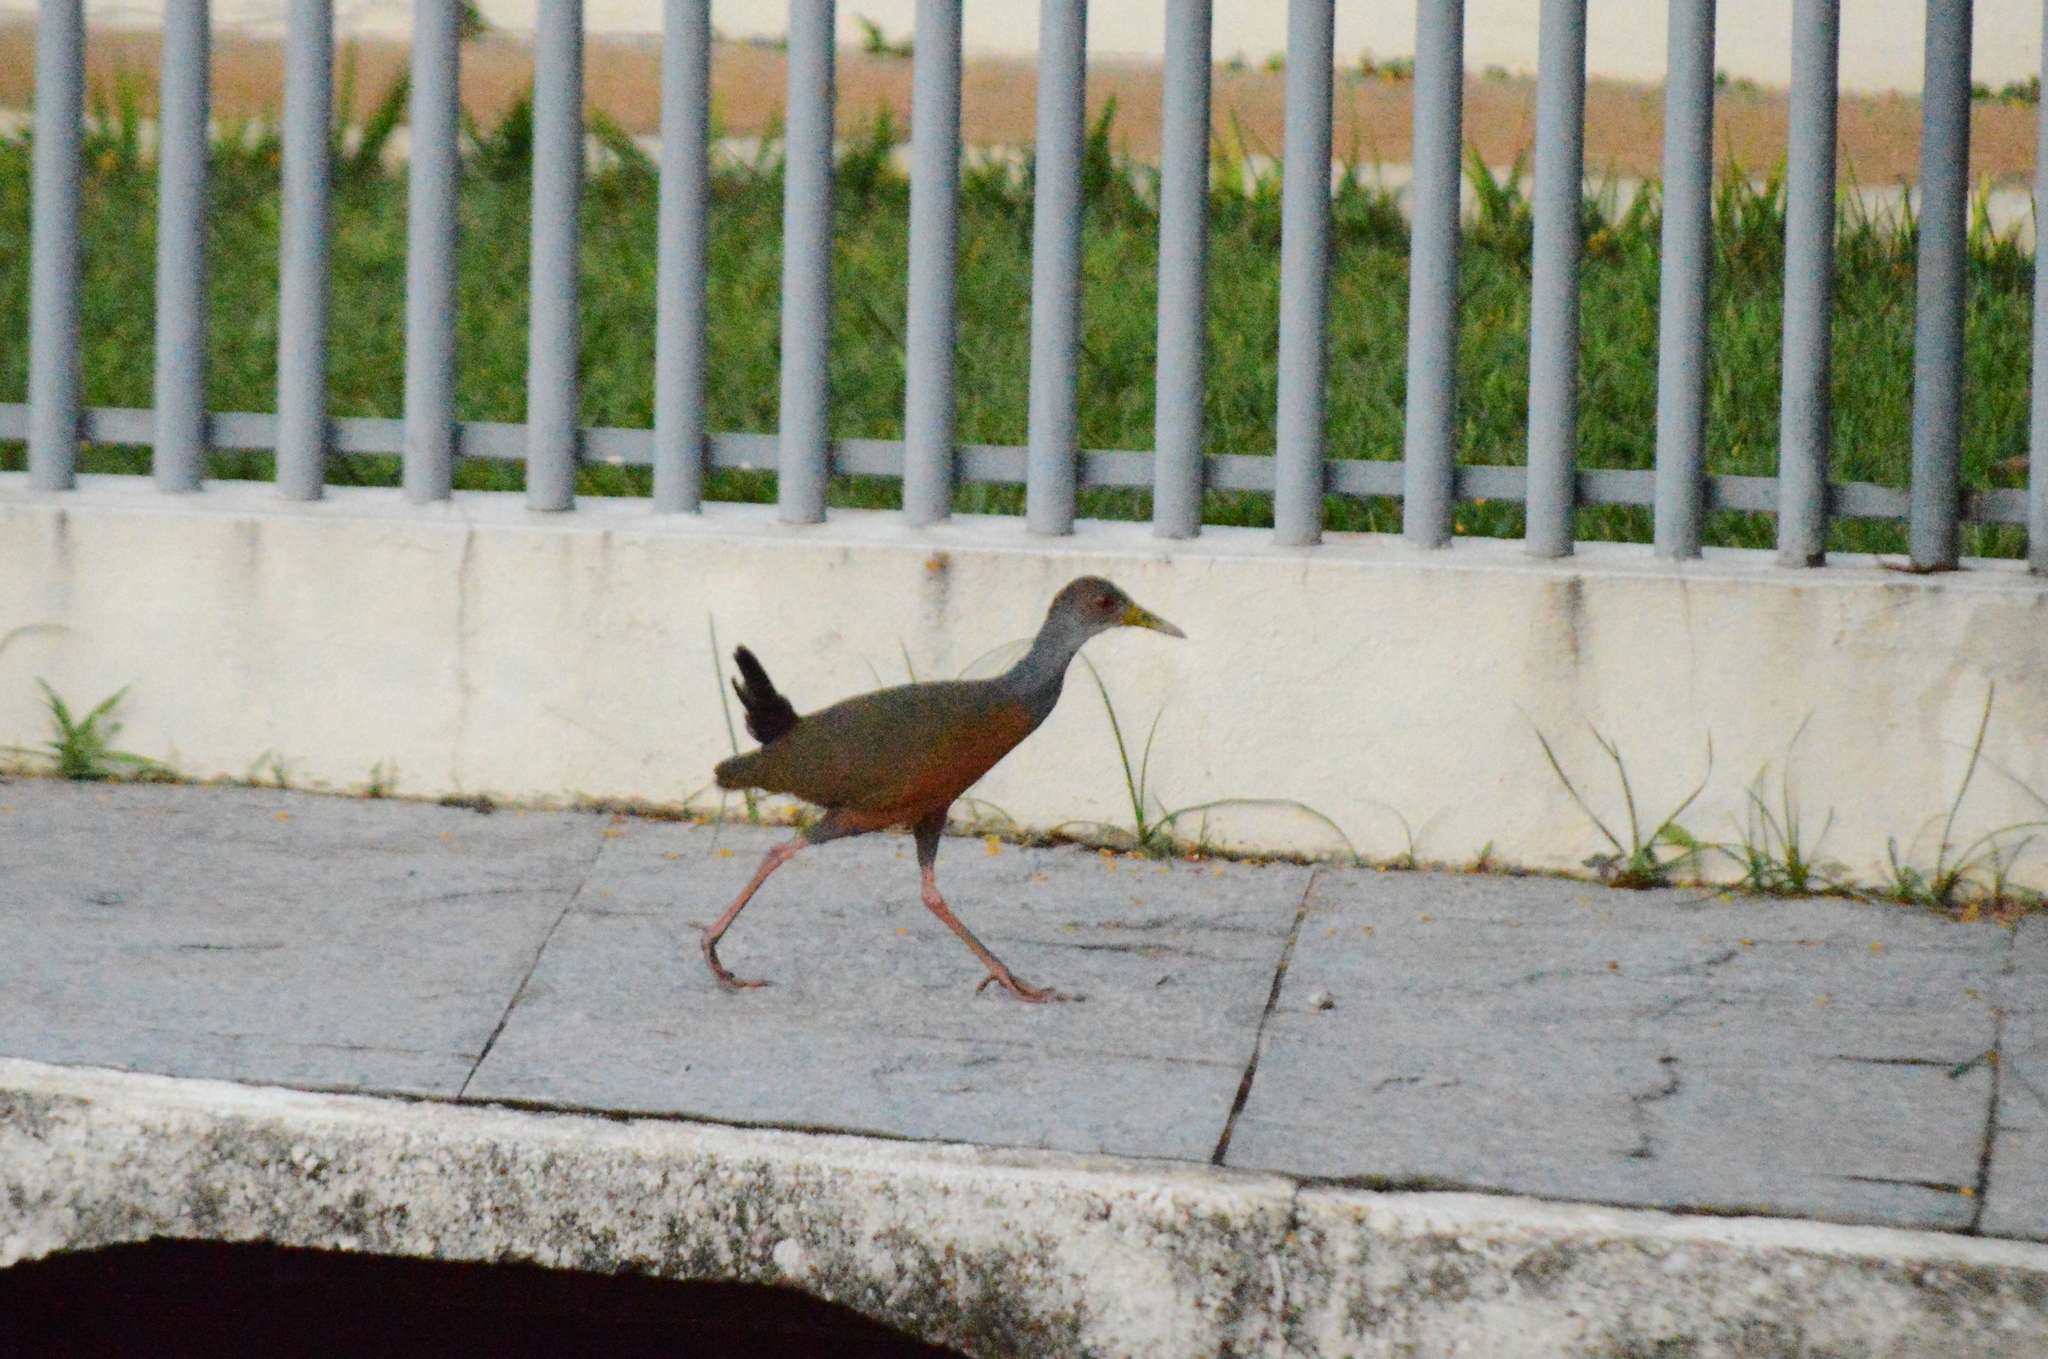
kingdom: Animalia
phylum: Chordata
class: Aves
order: Gruiformes
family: Rallidae
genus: Aramides
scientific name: Aramides cajanea
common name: Gray-necked wood-rail
